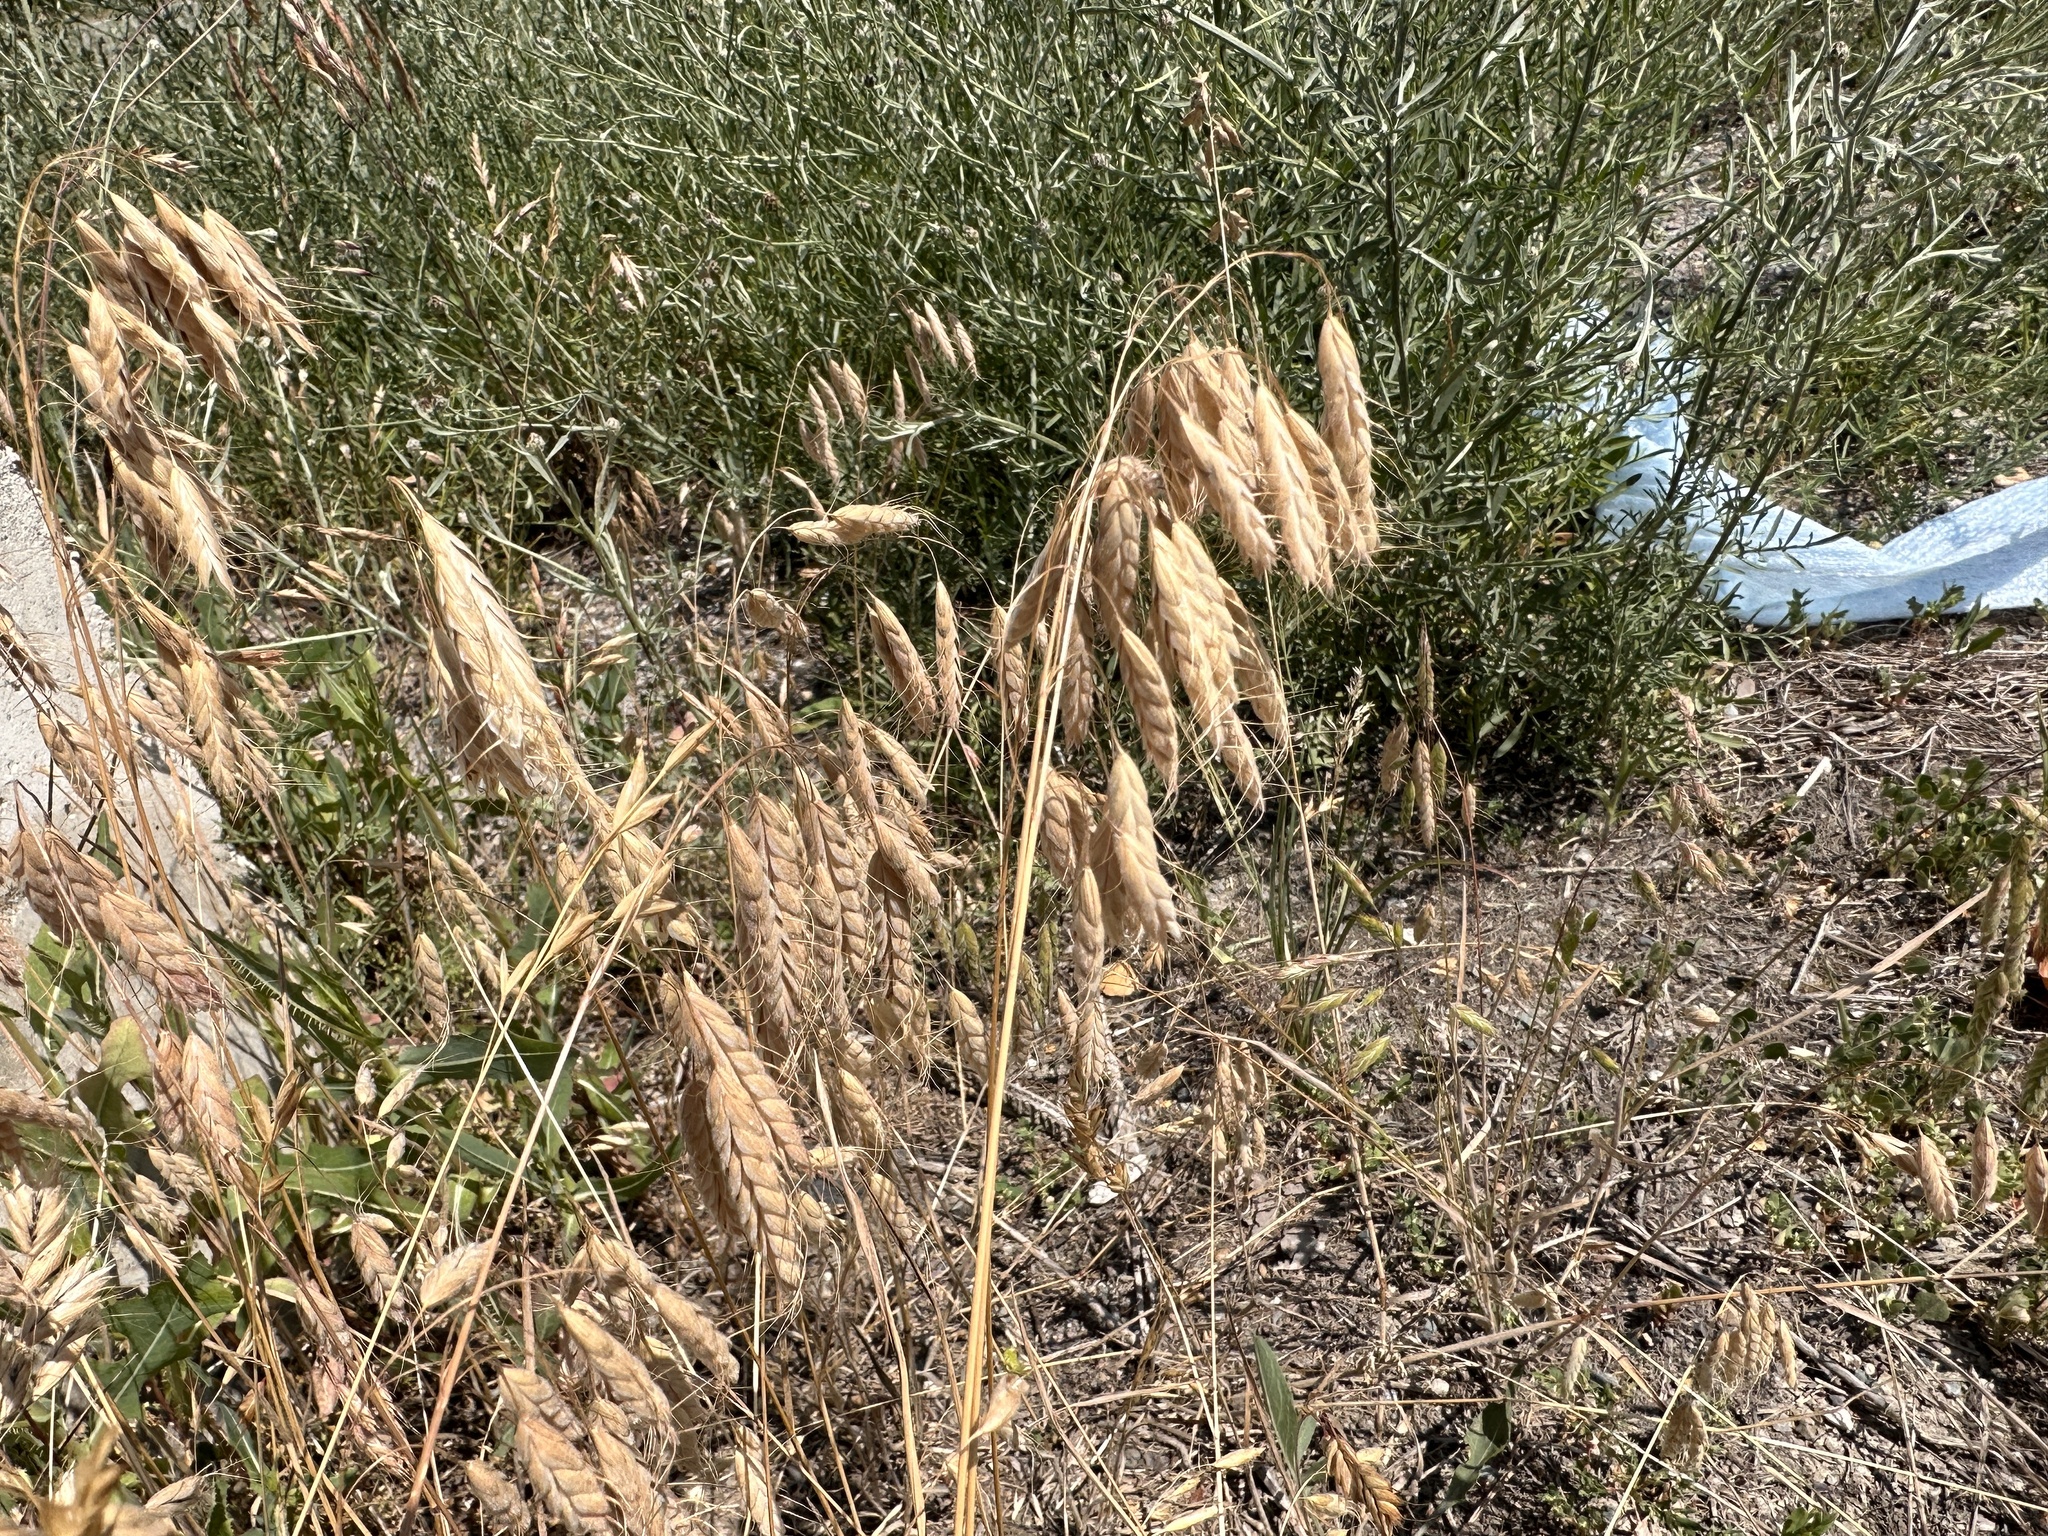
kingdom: Plantae
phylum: Tracheophyta
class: Liliopsida
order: Poales
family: Poaceae
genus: Bromus
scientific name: Bromus squarrosus
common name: Corn brome
